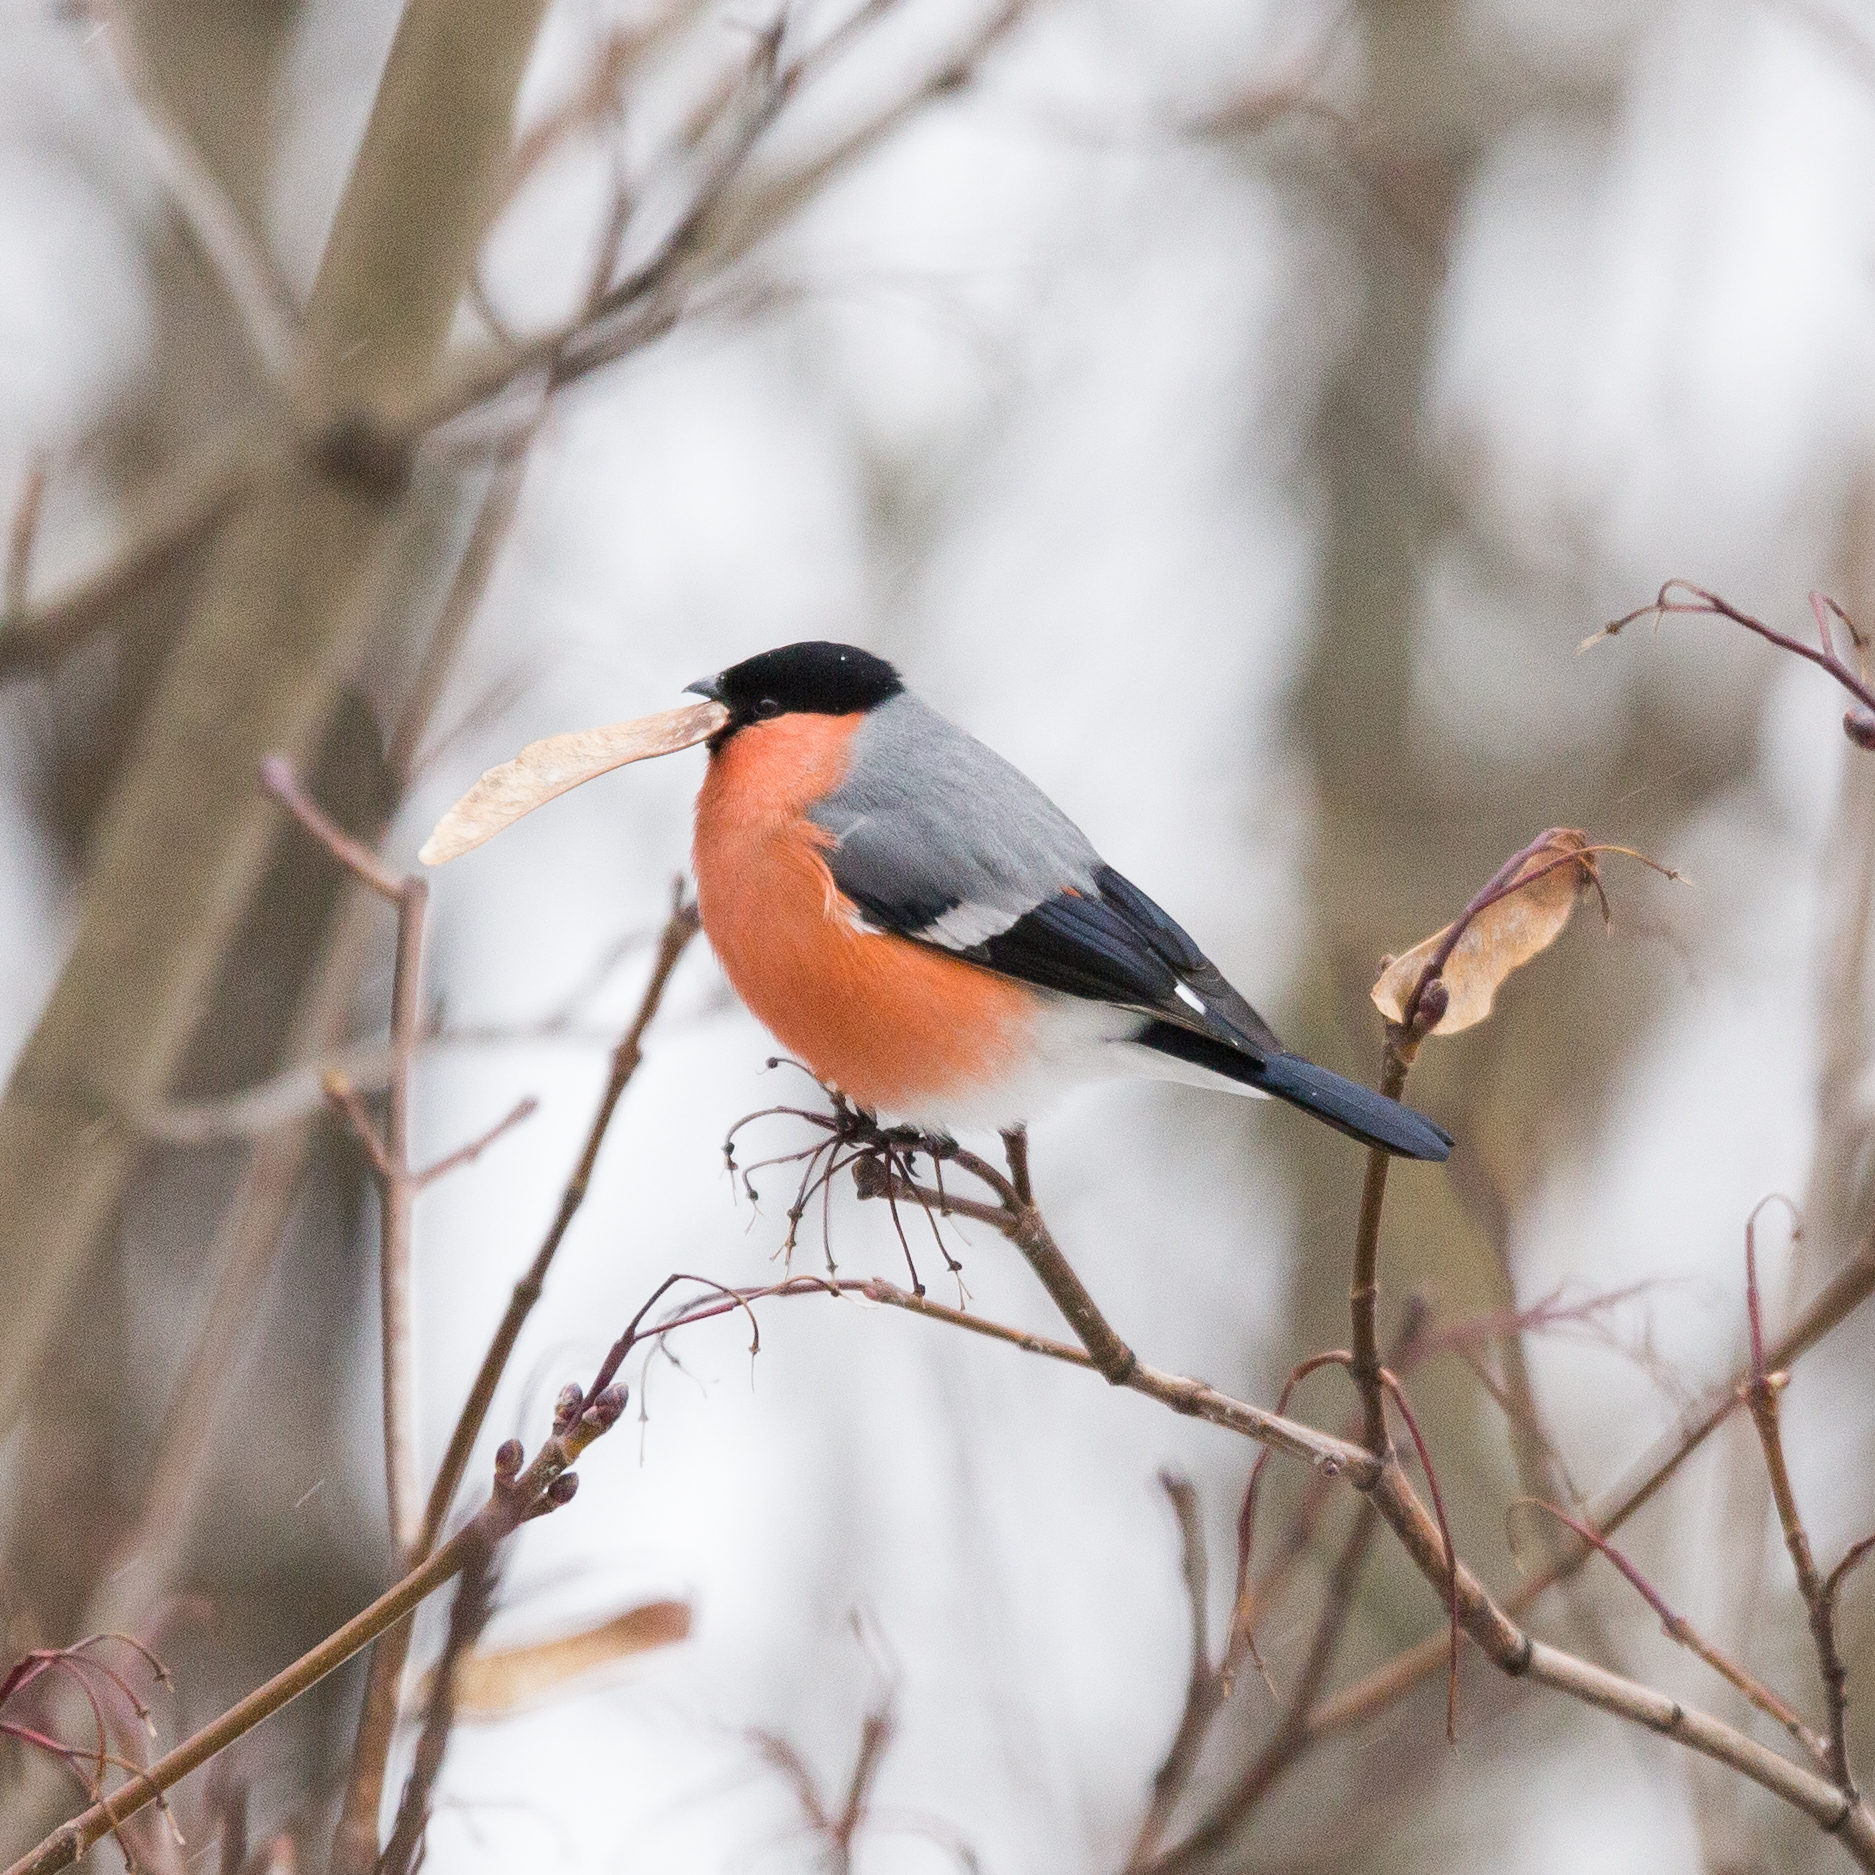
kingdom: Animalia
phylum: Chordata
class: Aves
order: Passeriformes
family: Fringillidae
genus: Pyrrhula
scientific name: Pyrrhula pyrrhula
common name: Eurasian bullfinch
